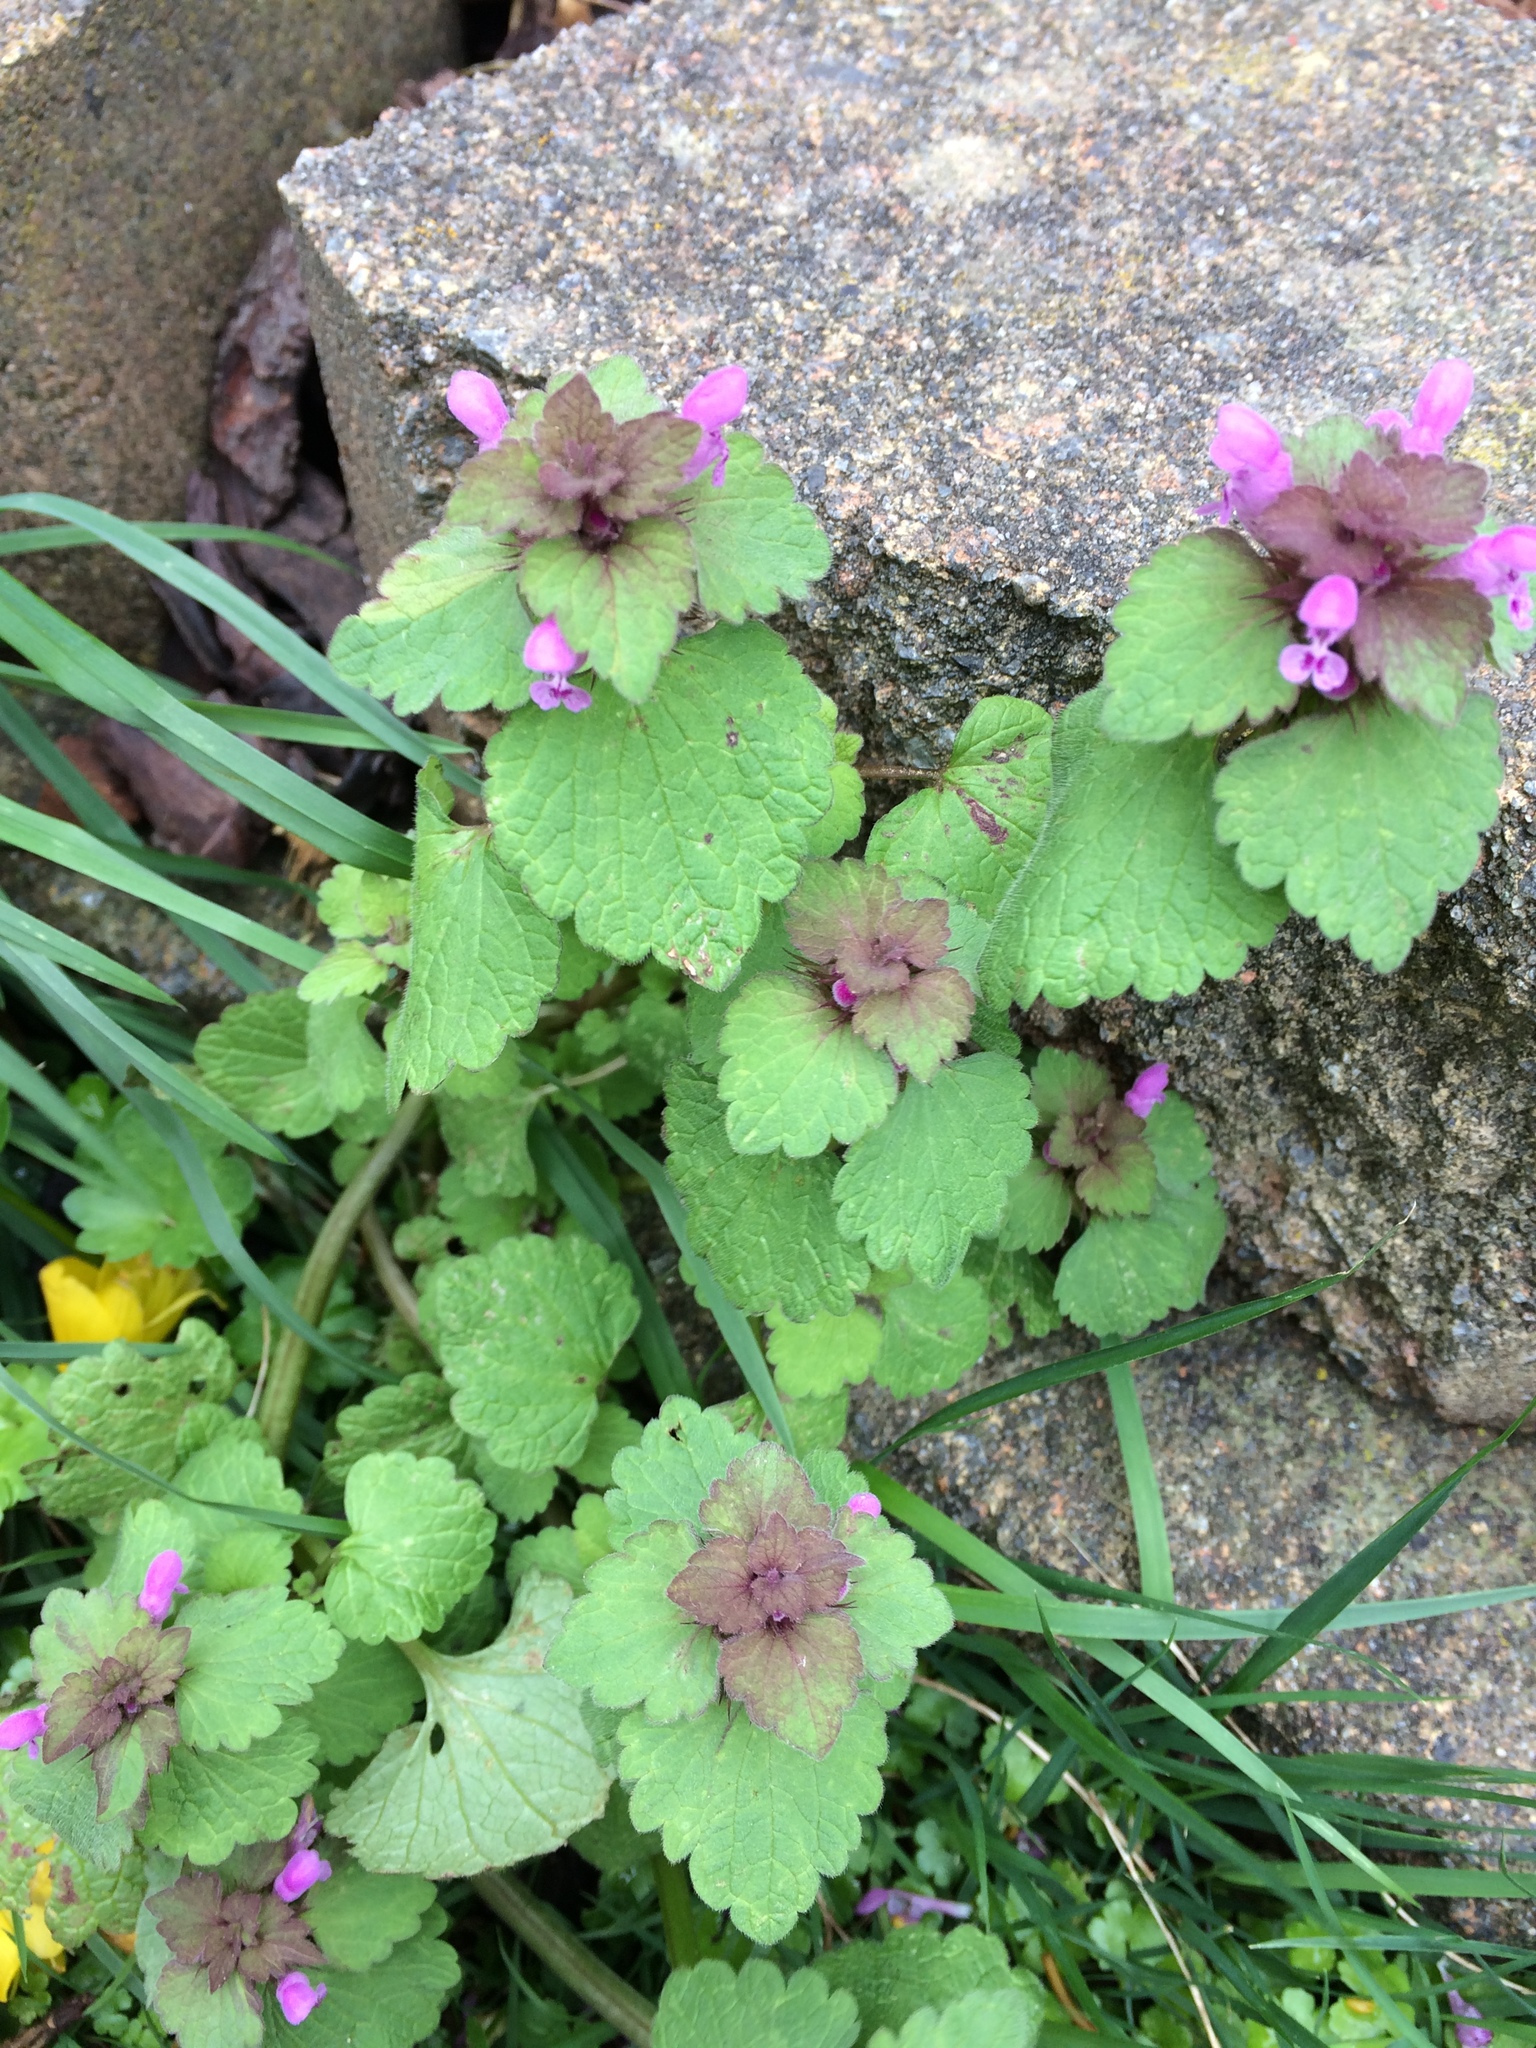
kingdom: Plantae
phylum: Tracheophyta
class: Magnoliopsida
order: Lamiales
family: Lamiaceae
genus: Lamium
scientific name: Lamium purpureum
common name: Red dead-nettle
